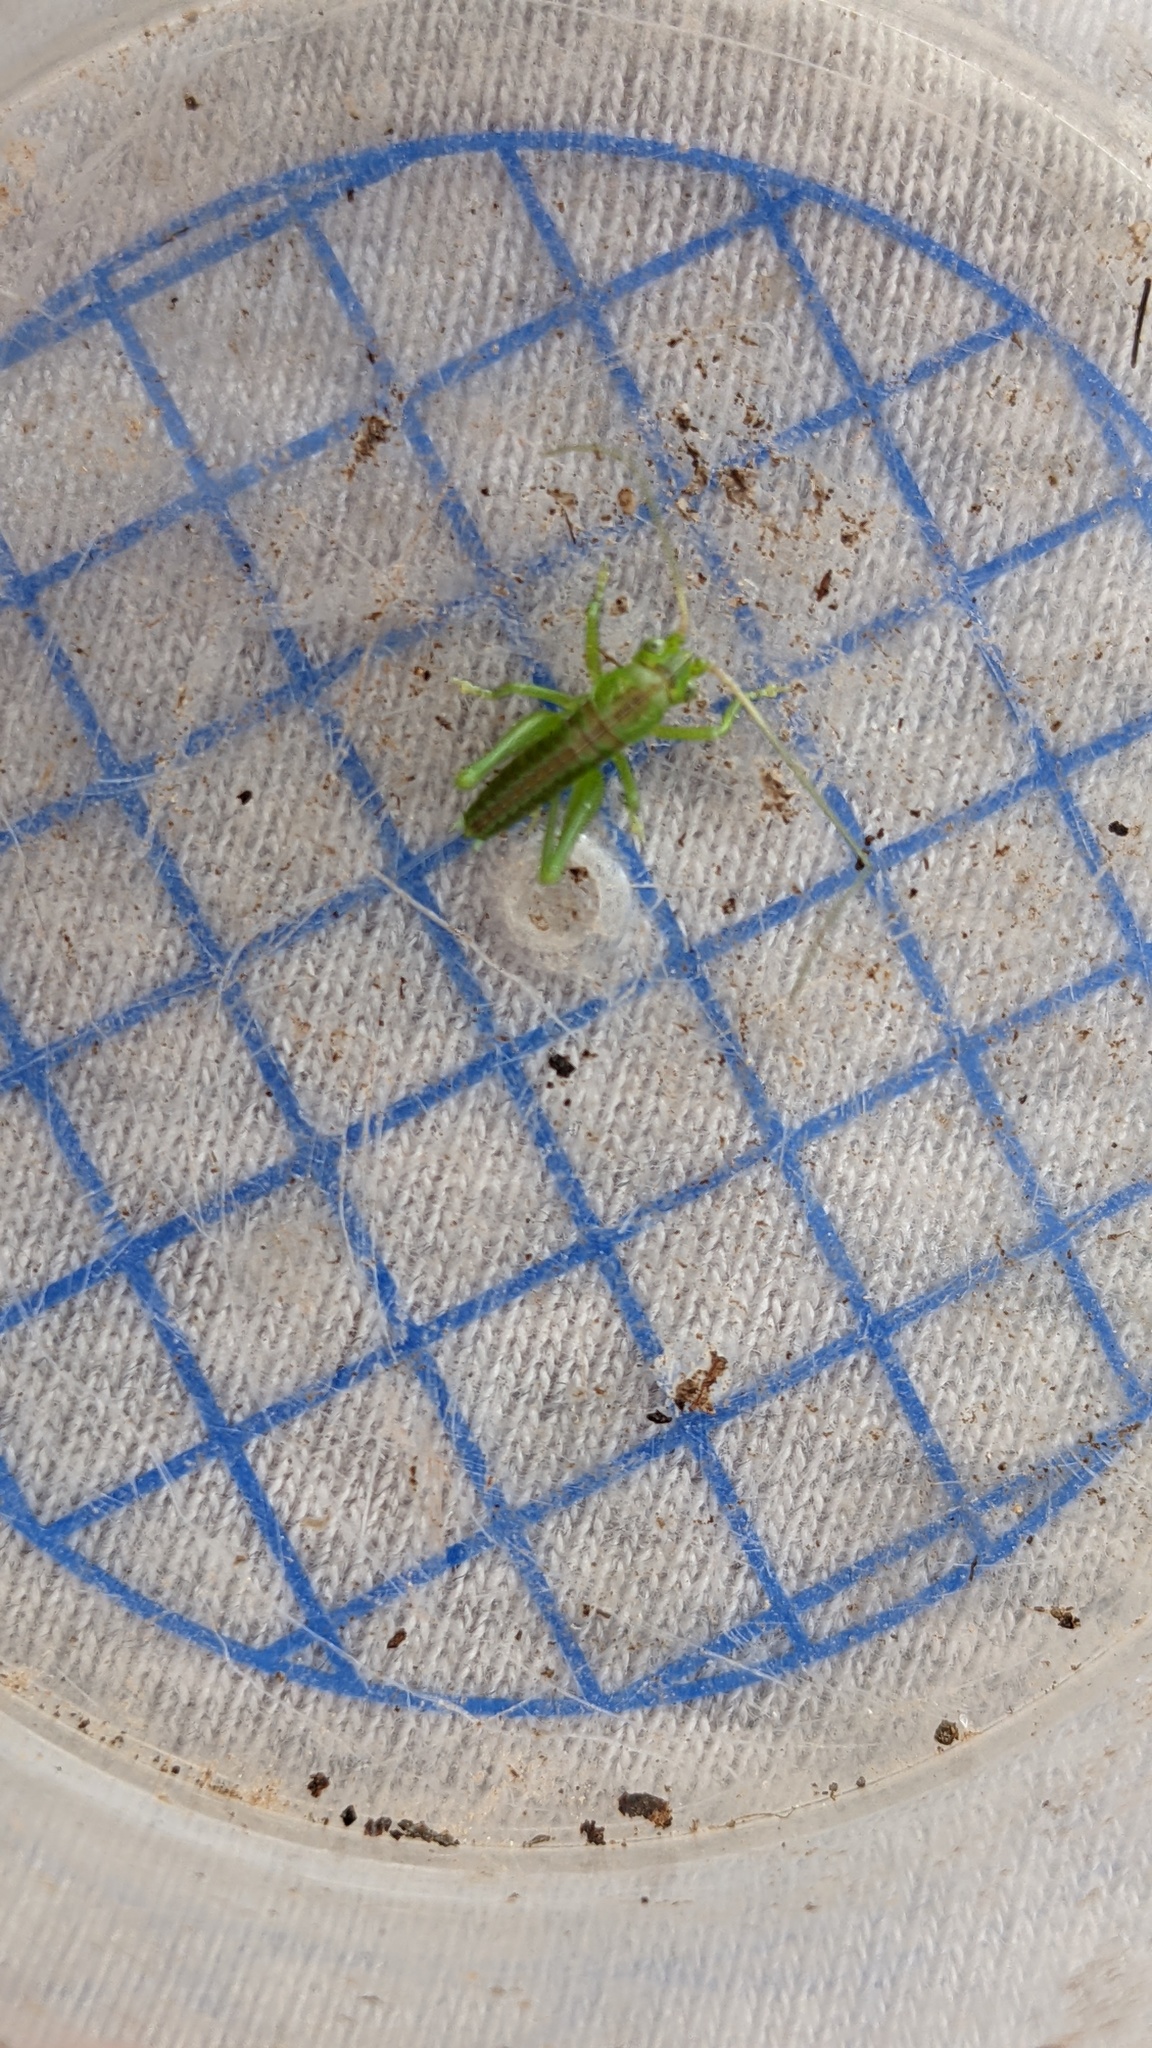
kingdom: Animalia
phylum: Arthropoda
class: Insecta
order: Orthoptera
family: Tettigoniidae
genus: Tettigonia
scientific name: Tettigonia viridissima
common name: Great green bush-cricket
